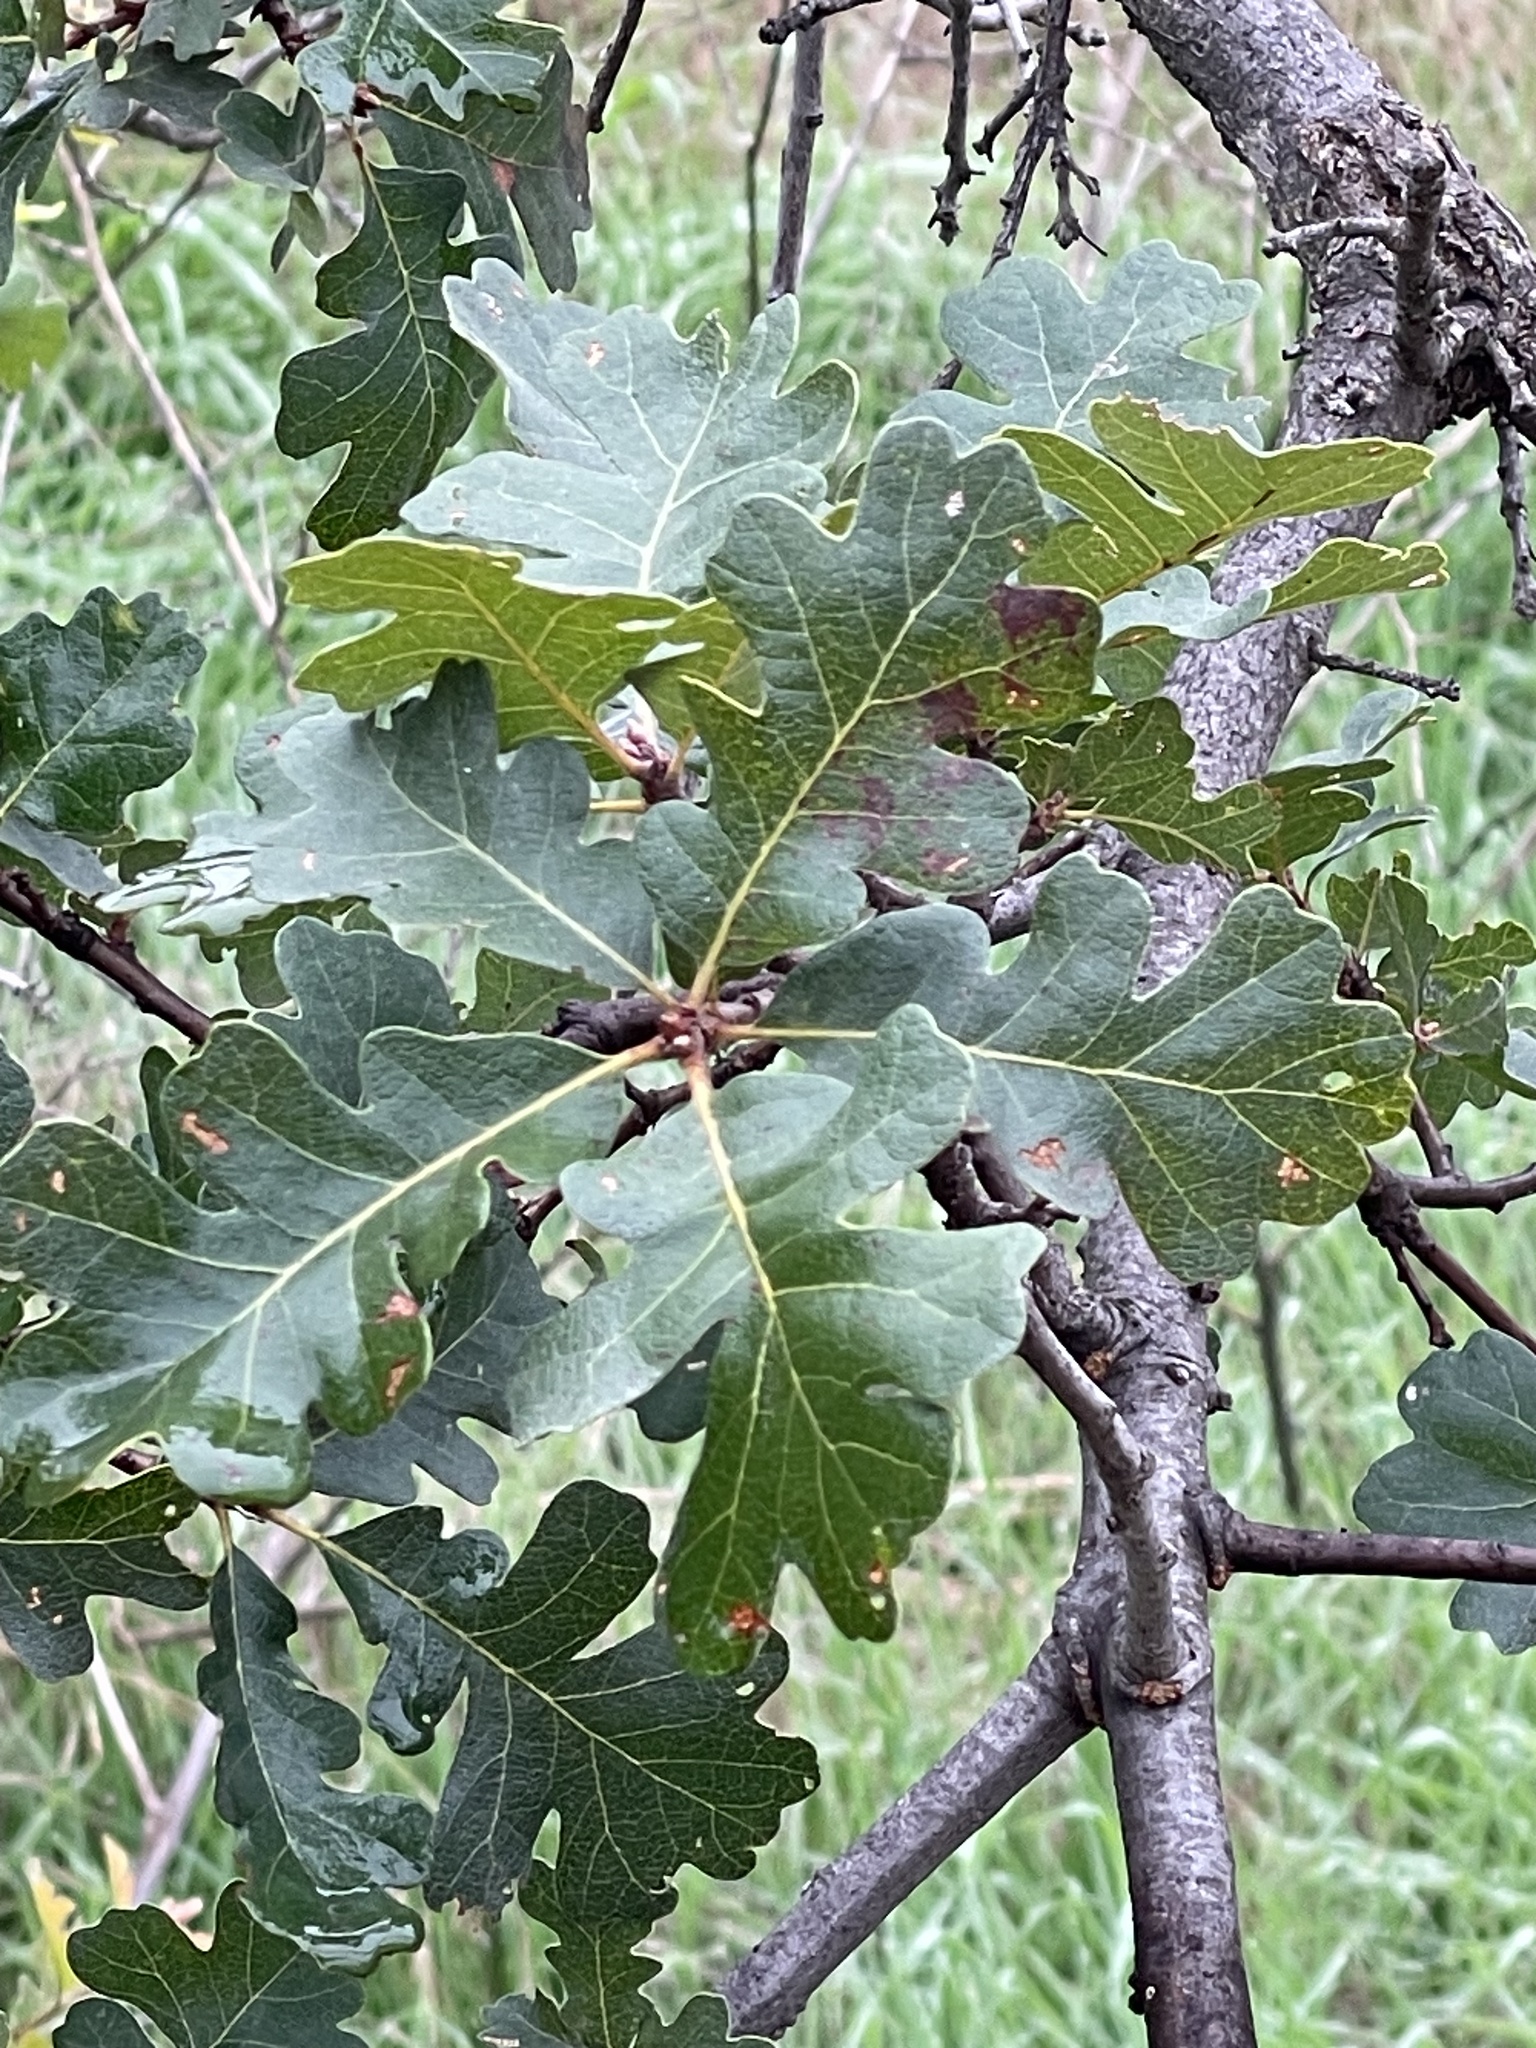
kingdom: Plantae
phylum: Tracheophyta
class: Magnoliopsida
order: Fagales
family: Fagaceae
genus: Quercus
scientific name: Quercus lobata
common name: Valley oak
